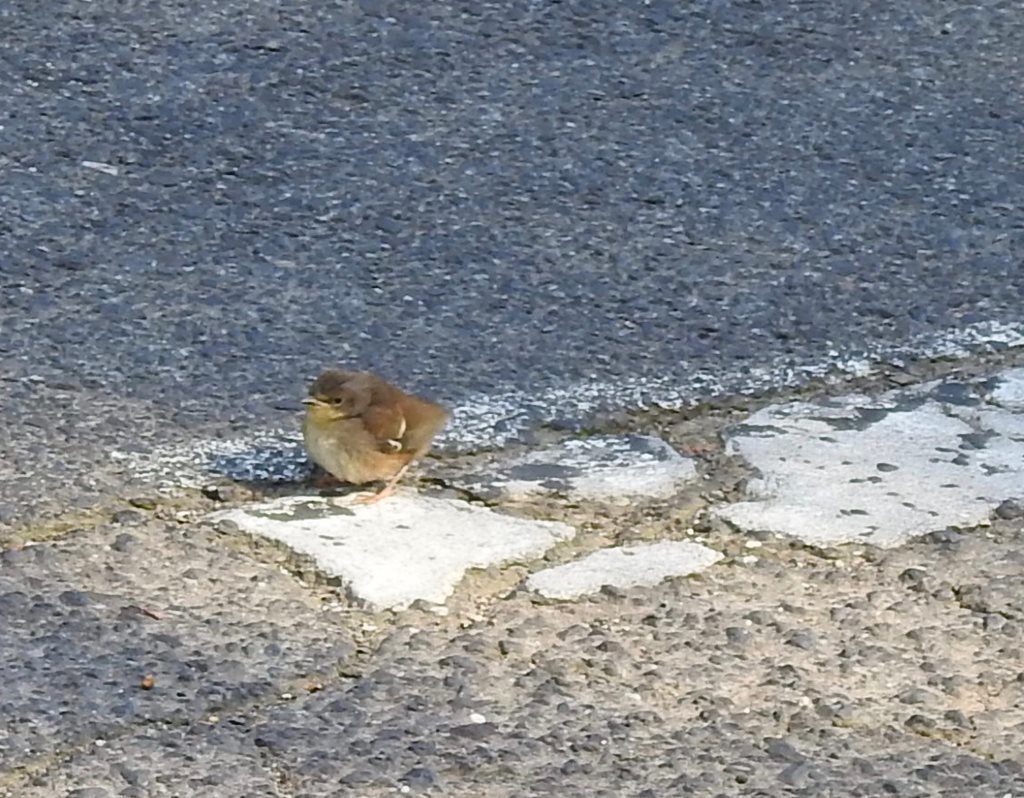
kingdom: Animalia
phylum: Chordata
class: Aves
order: Passeriformes
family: Acanthizidae
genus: Sericornis
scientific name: Sericornis frontalis
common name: White-browed scrubwren
